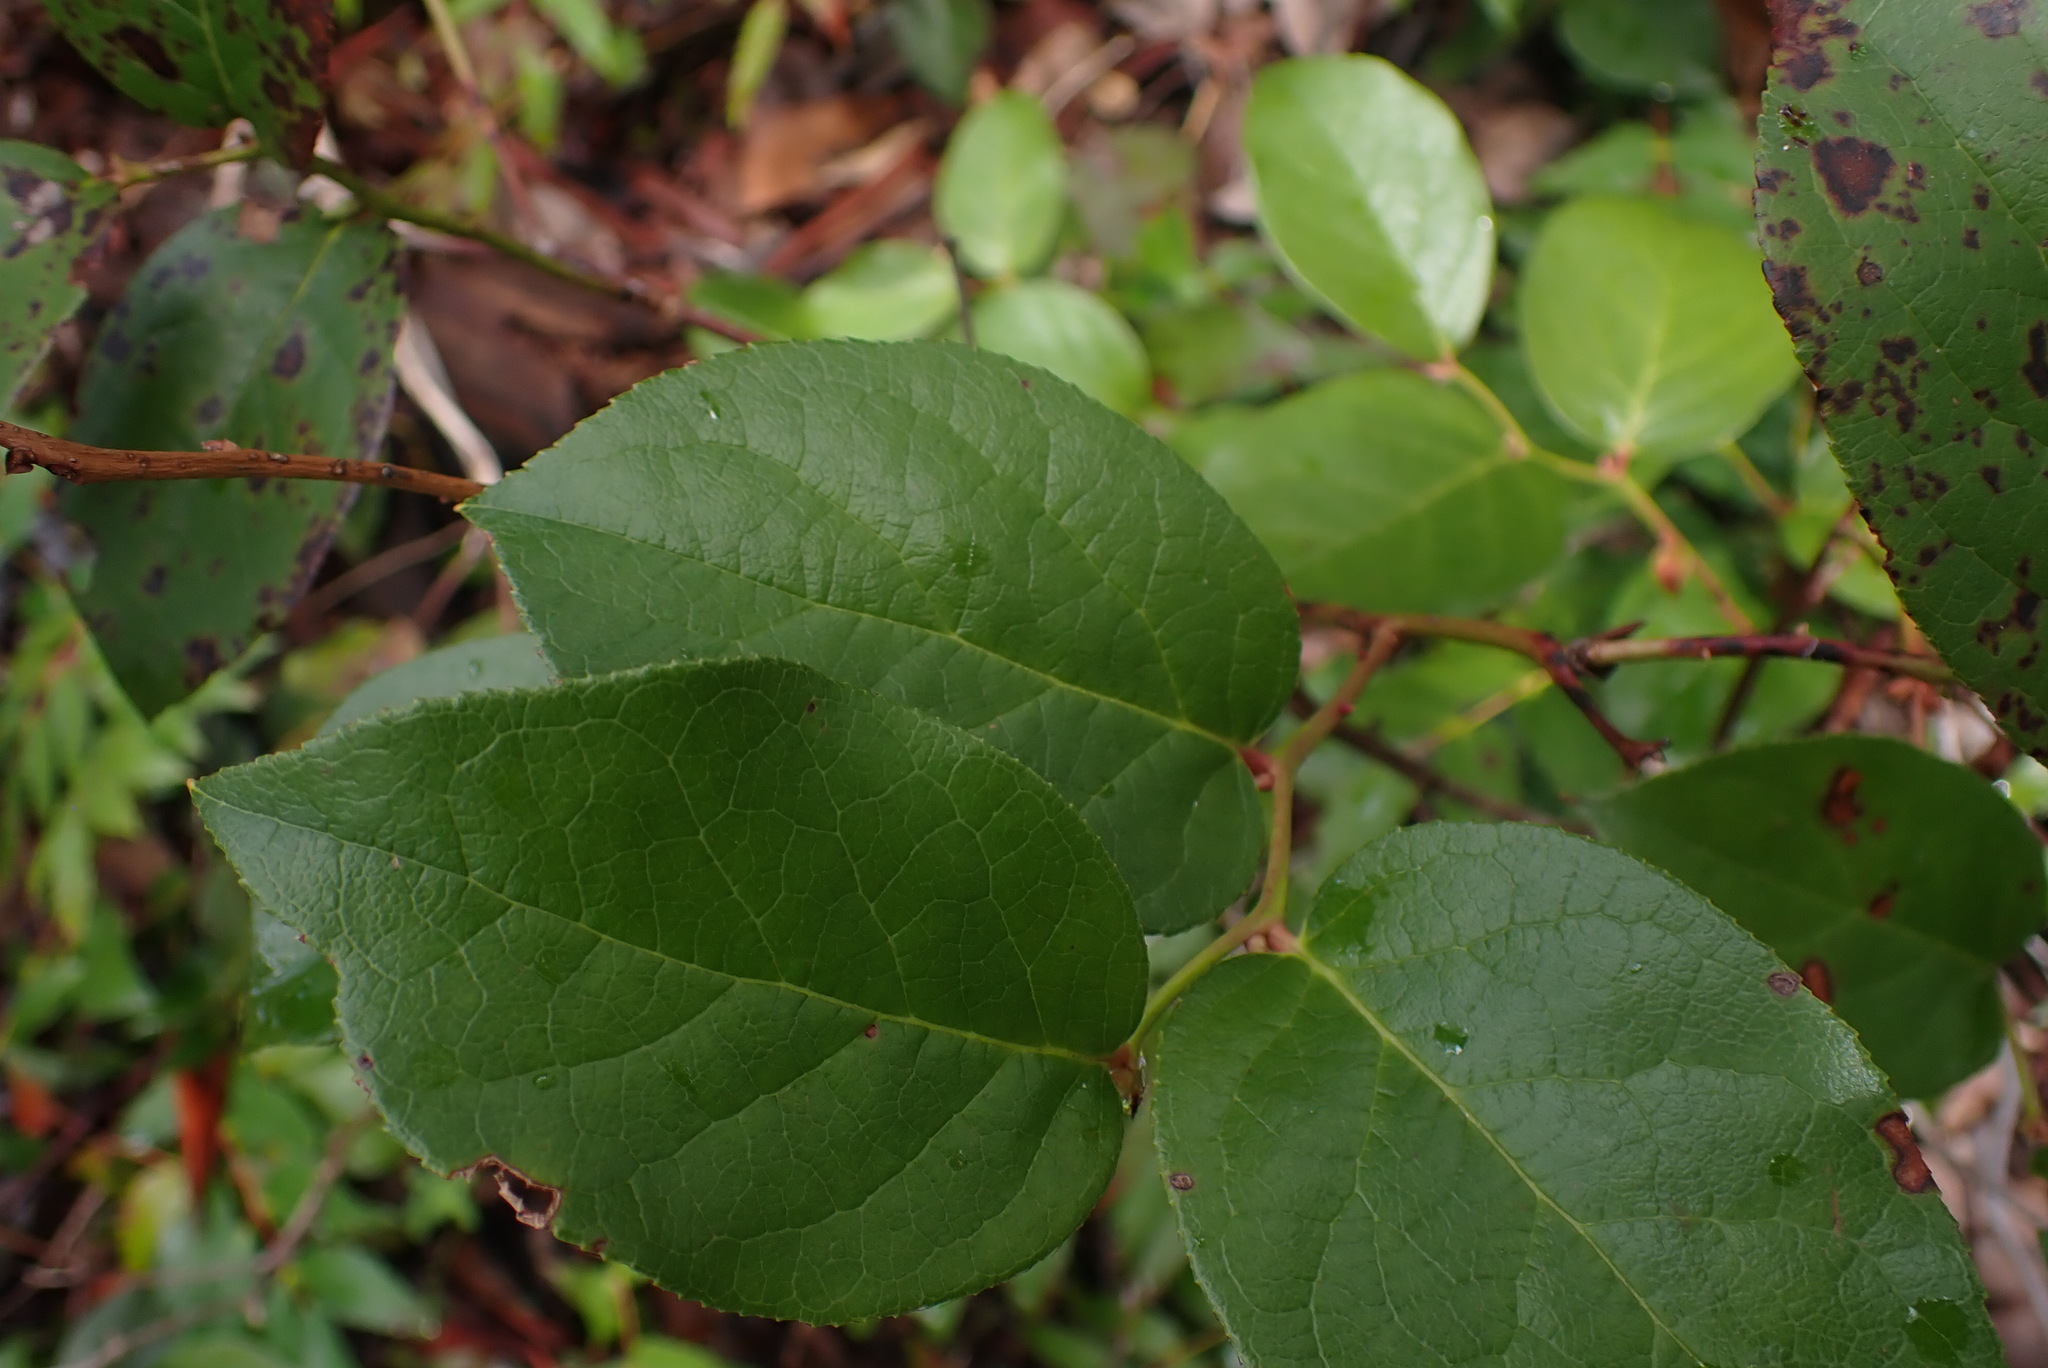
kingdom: Plantae
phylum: Tracheophyta
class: Magnoliopsida
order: Ericales
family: Ericaceae
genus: Gaultheria
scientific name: Gaultheria shallon
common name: Shallon
